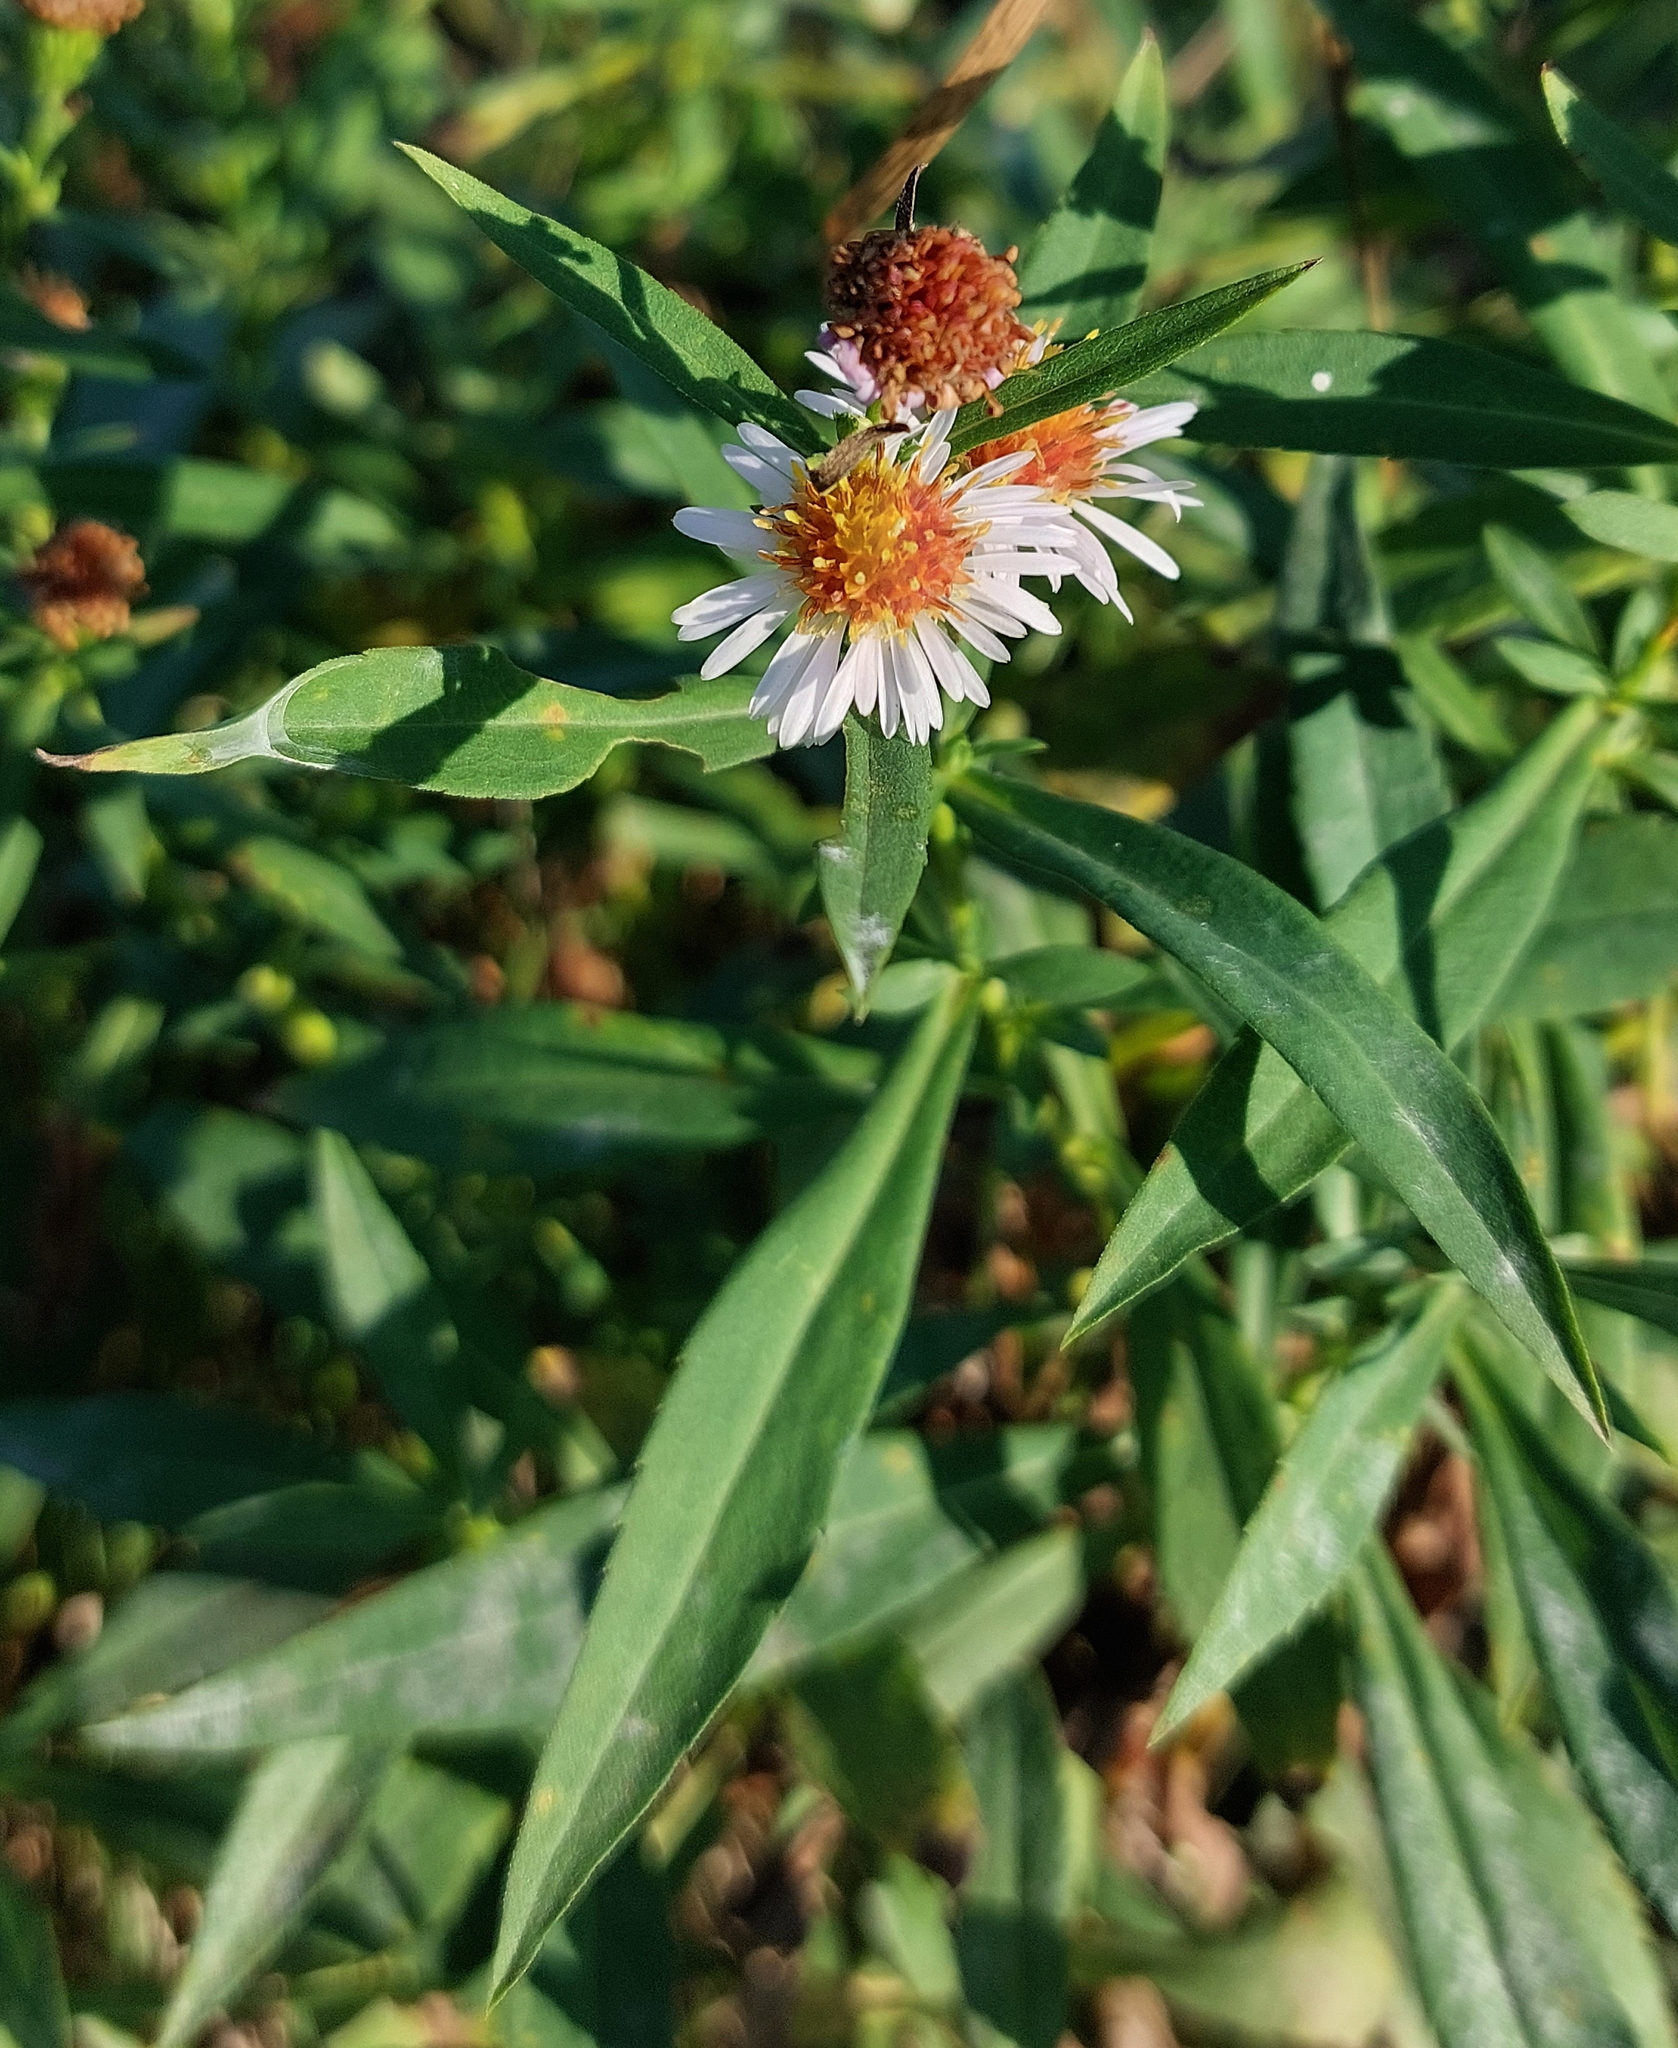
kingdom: Plantae
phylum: Tracheophyta
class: Magnoliopsida
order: Asterales
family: Asteraceae
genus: Symphyotrichum
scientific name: Symphyotrichum lanceolatum
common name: Panicled aster
